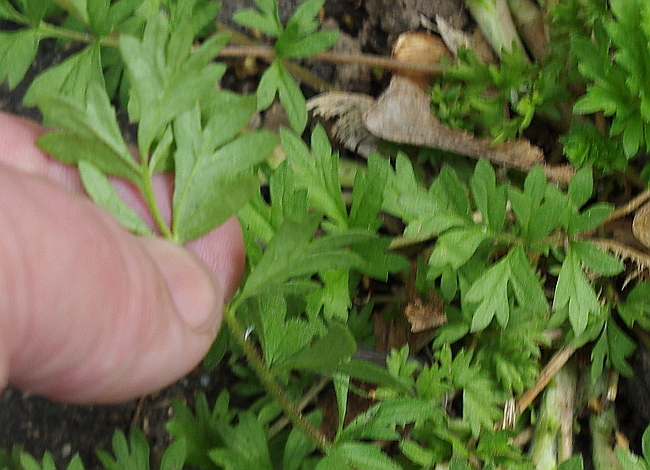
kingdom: Plantae
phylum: Tracheophyta
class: Magnoliopsida
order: Rosales
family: Rosaceae
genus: Potentilla
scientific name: Potentilla supina
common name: Prostrate cinquefoil
